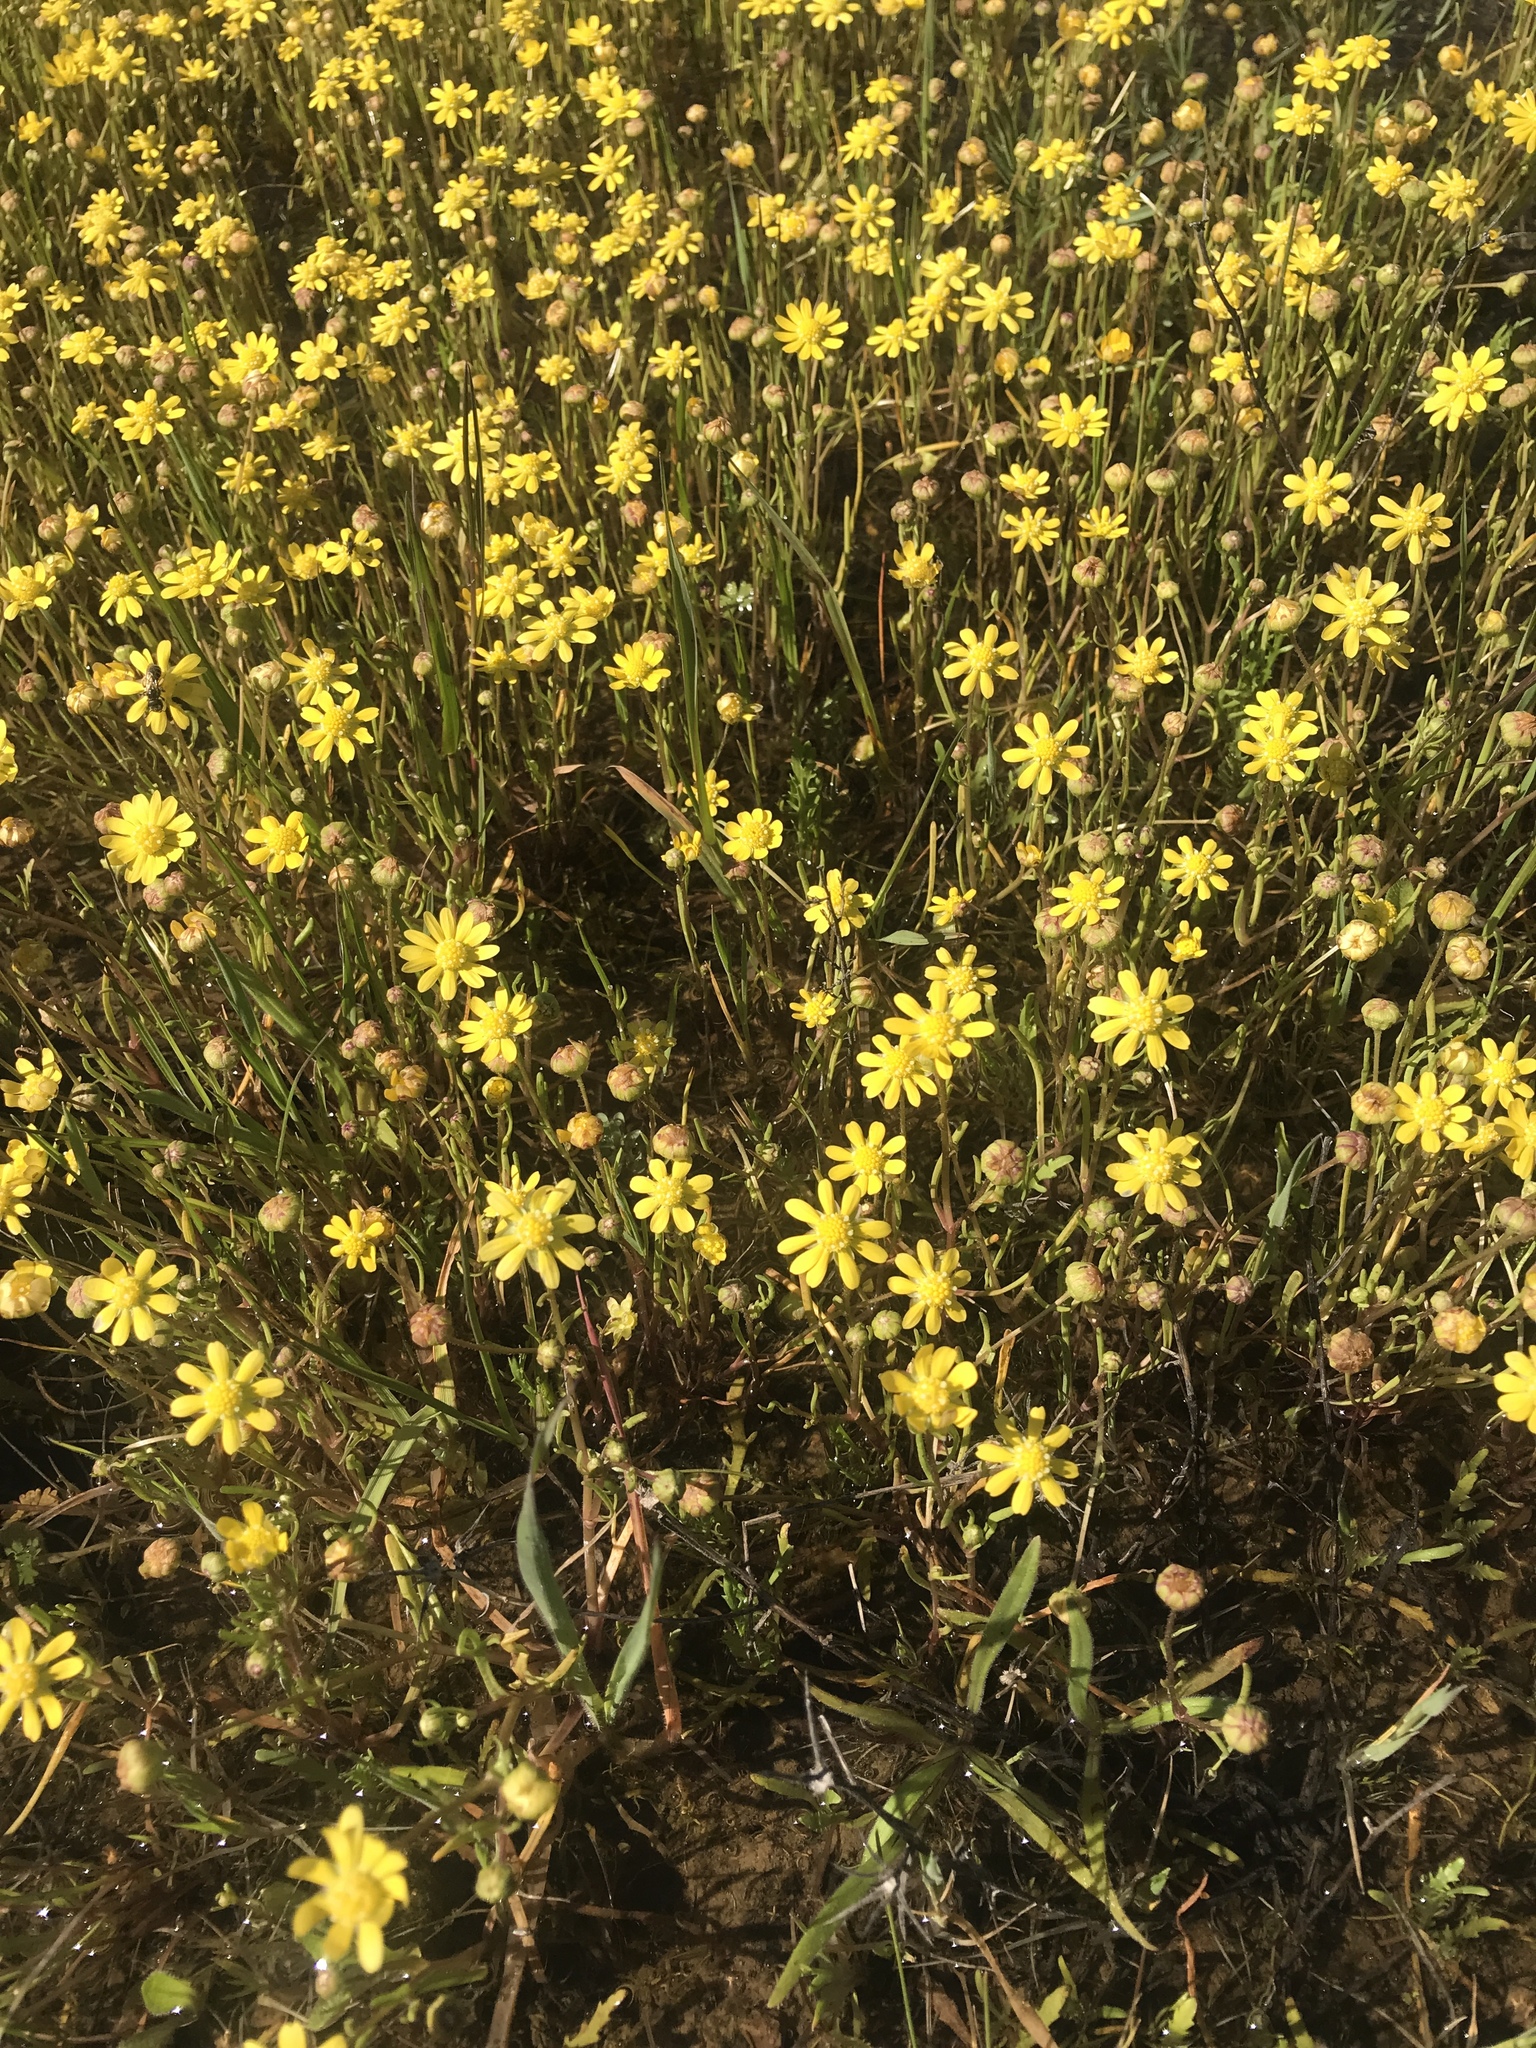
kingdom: Plantae
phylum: Tracheophyta
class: Magnoliopsida
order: Asterales
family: Asteraceae
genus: Blennosperma
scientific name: Blennosperma bakeri
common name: Sonoma sunshine
